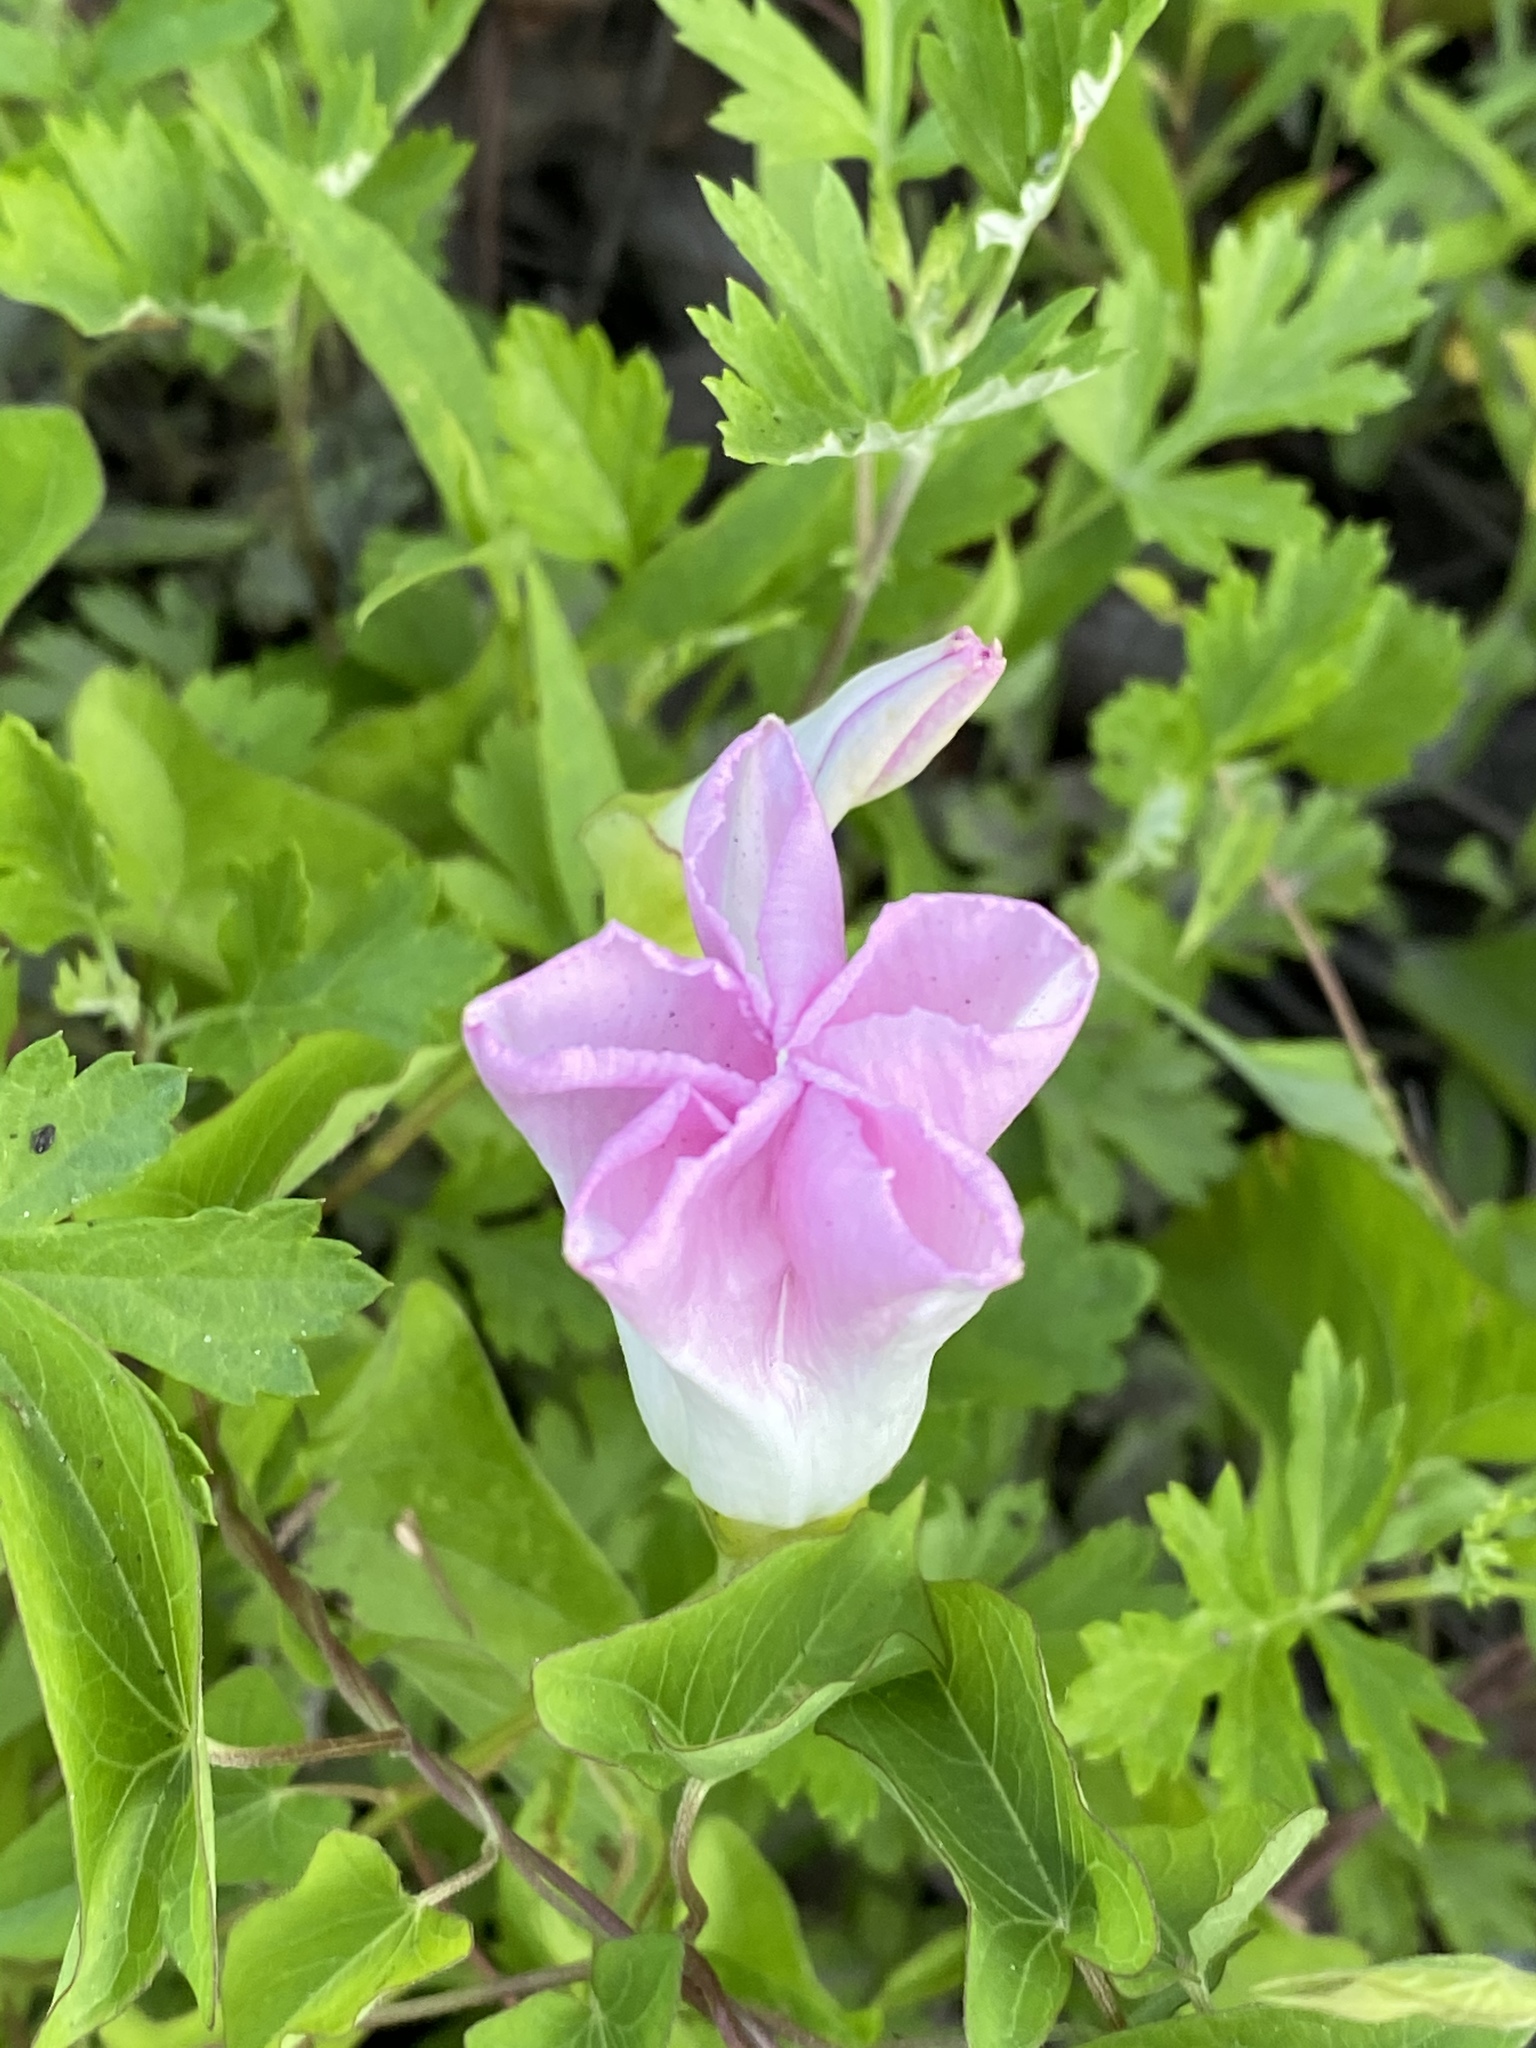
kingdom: Plantae
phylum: Tracheophyta
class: Magnoliopsida
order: Solanales
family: Convolvulaceae
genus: Calystegia
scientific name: Calystegia sepium
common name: Hedge bindweed
